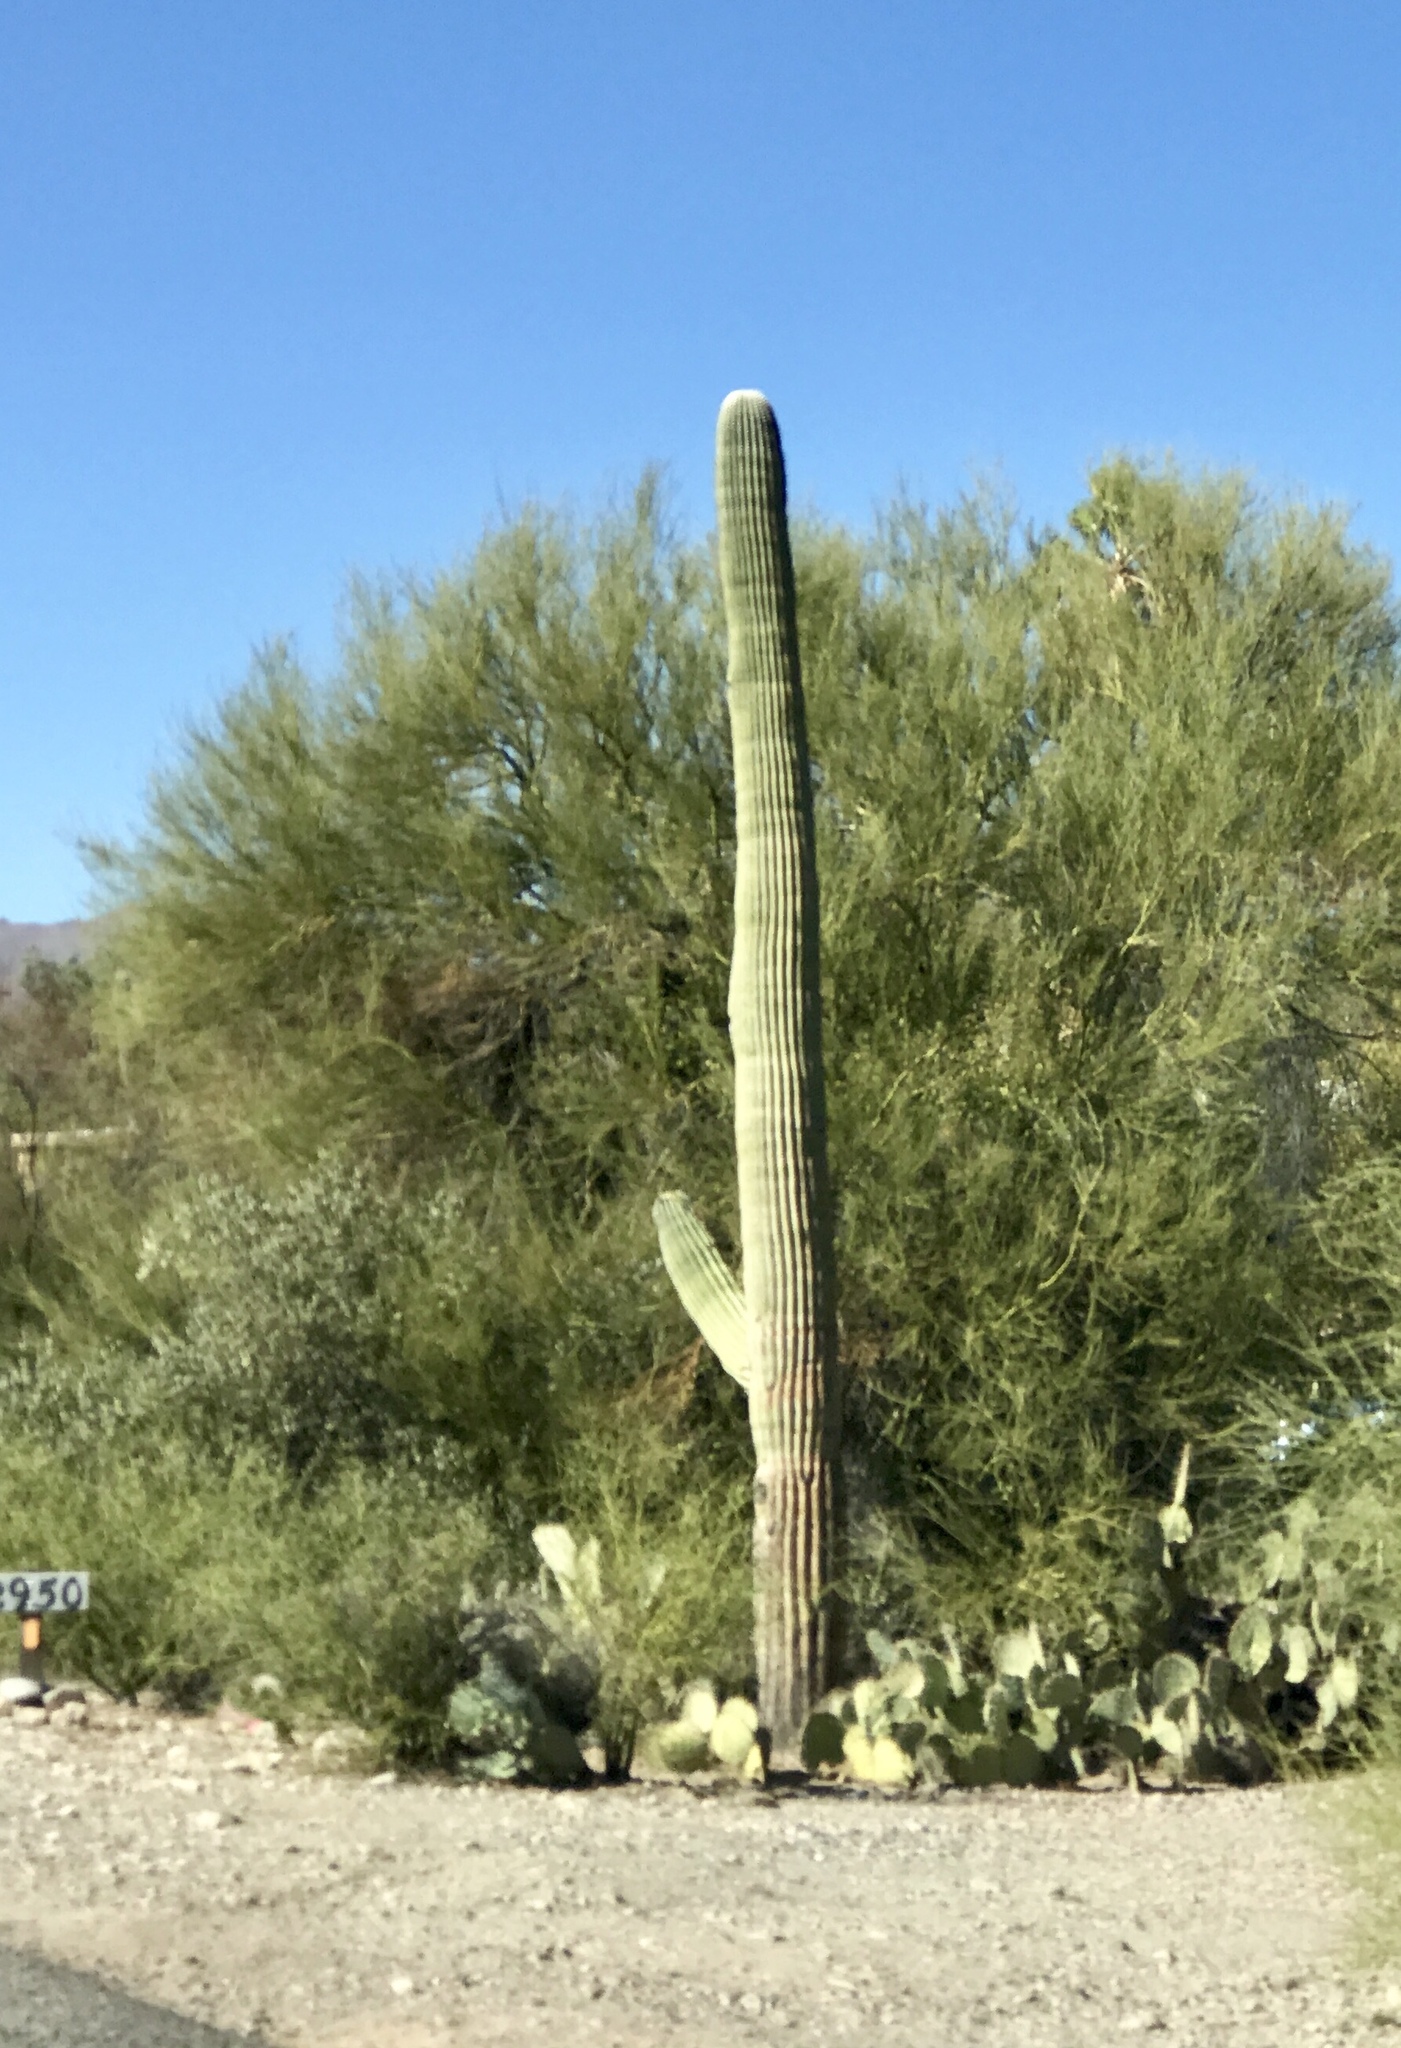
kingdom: Plantae
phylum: Tracheophyta
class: Magnoliopsida
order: Caryophyllales
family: Cactaceae
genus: Carnegiea
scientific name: Carnegiea gigantea
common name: Saguaro
